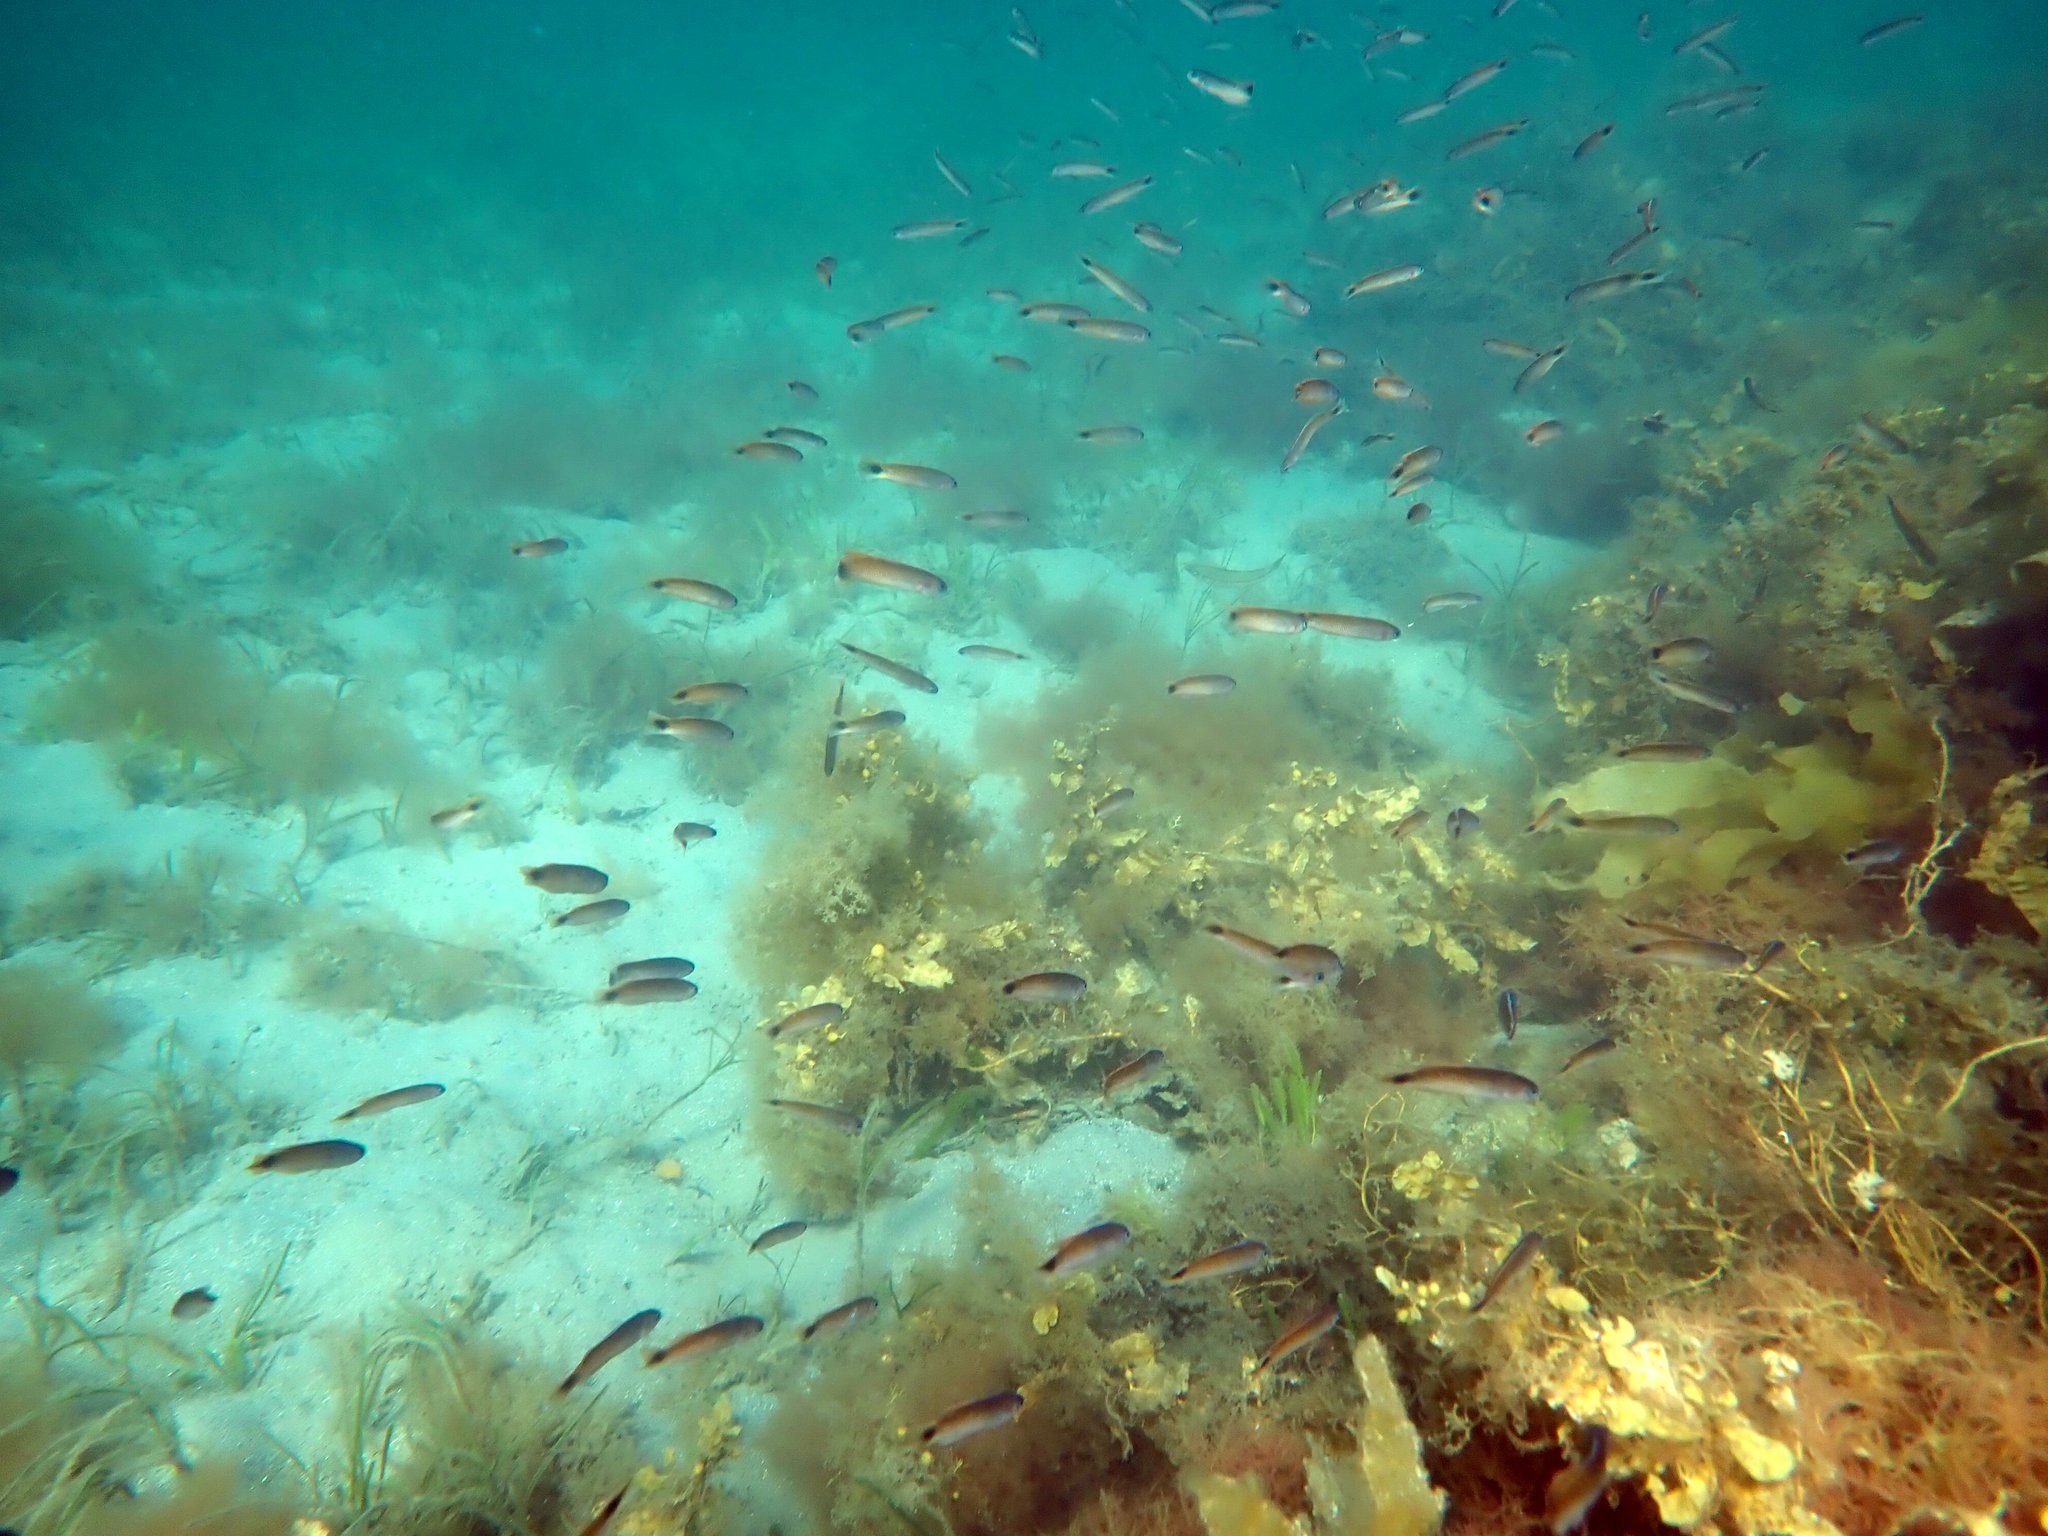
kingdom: Animalia
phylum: Chordata
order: Perciformes
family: Plesiopidae
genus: Trachinops
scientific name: Trachinops caudimaculatus
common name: Blotched-tailed trachinops
